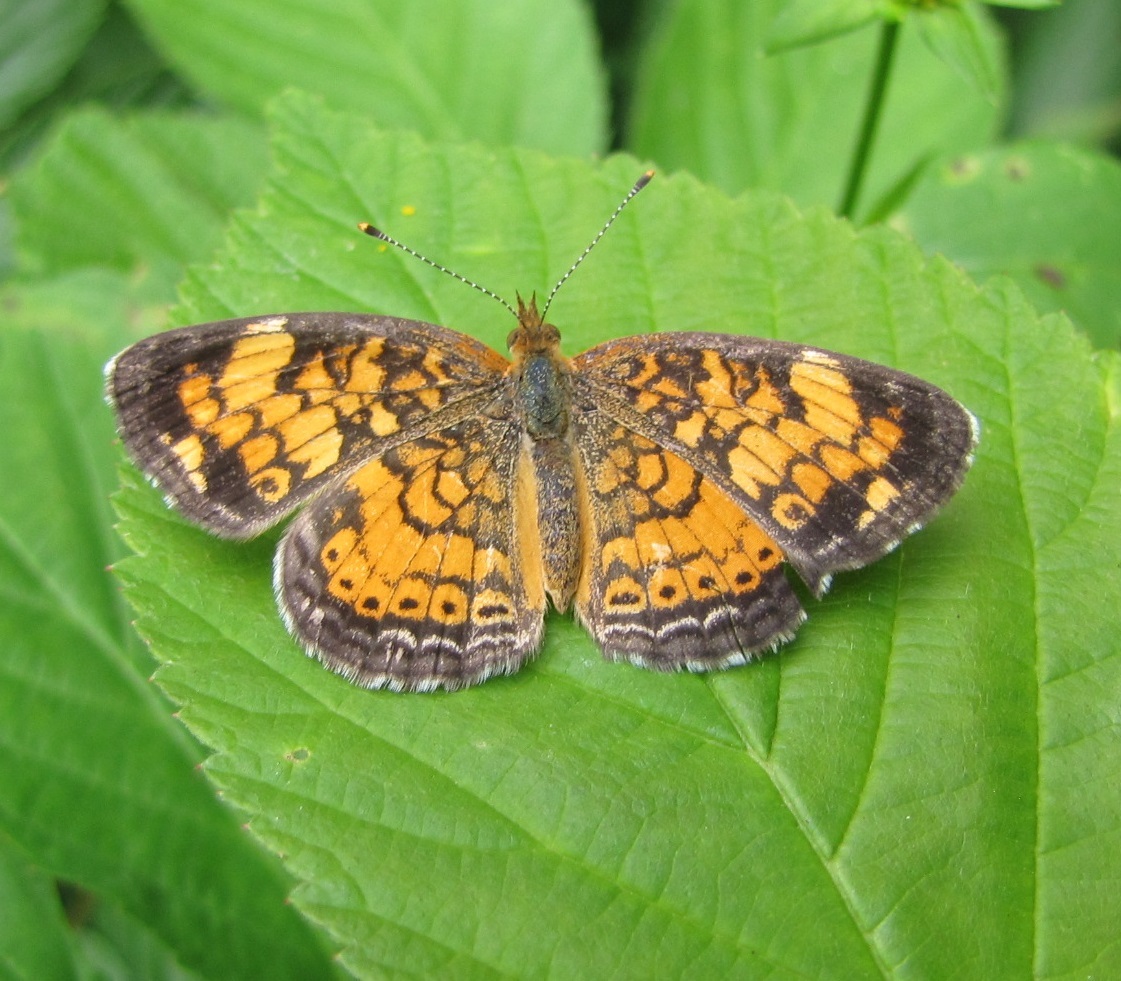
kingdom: Animalia
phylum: Arthropoda
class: Insecta
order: Lepidoptera
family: Nymphalidae
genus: Phyciodes
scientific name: Phyciodes tharos
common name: Pearl crescent
